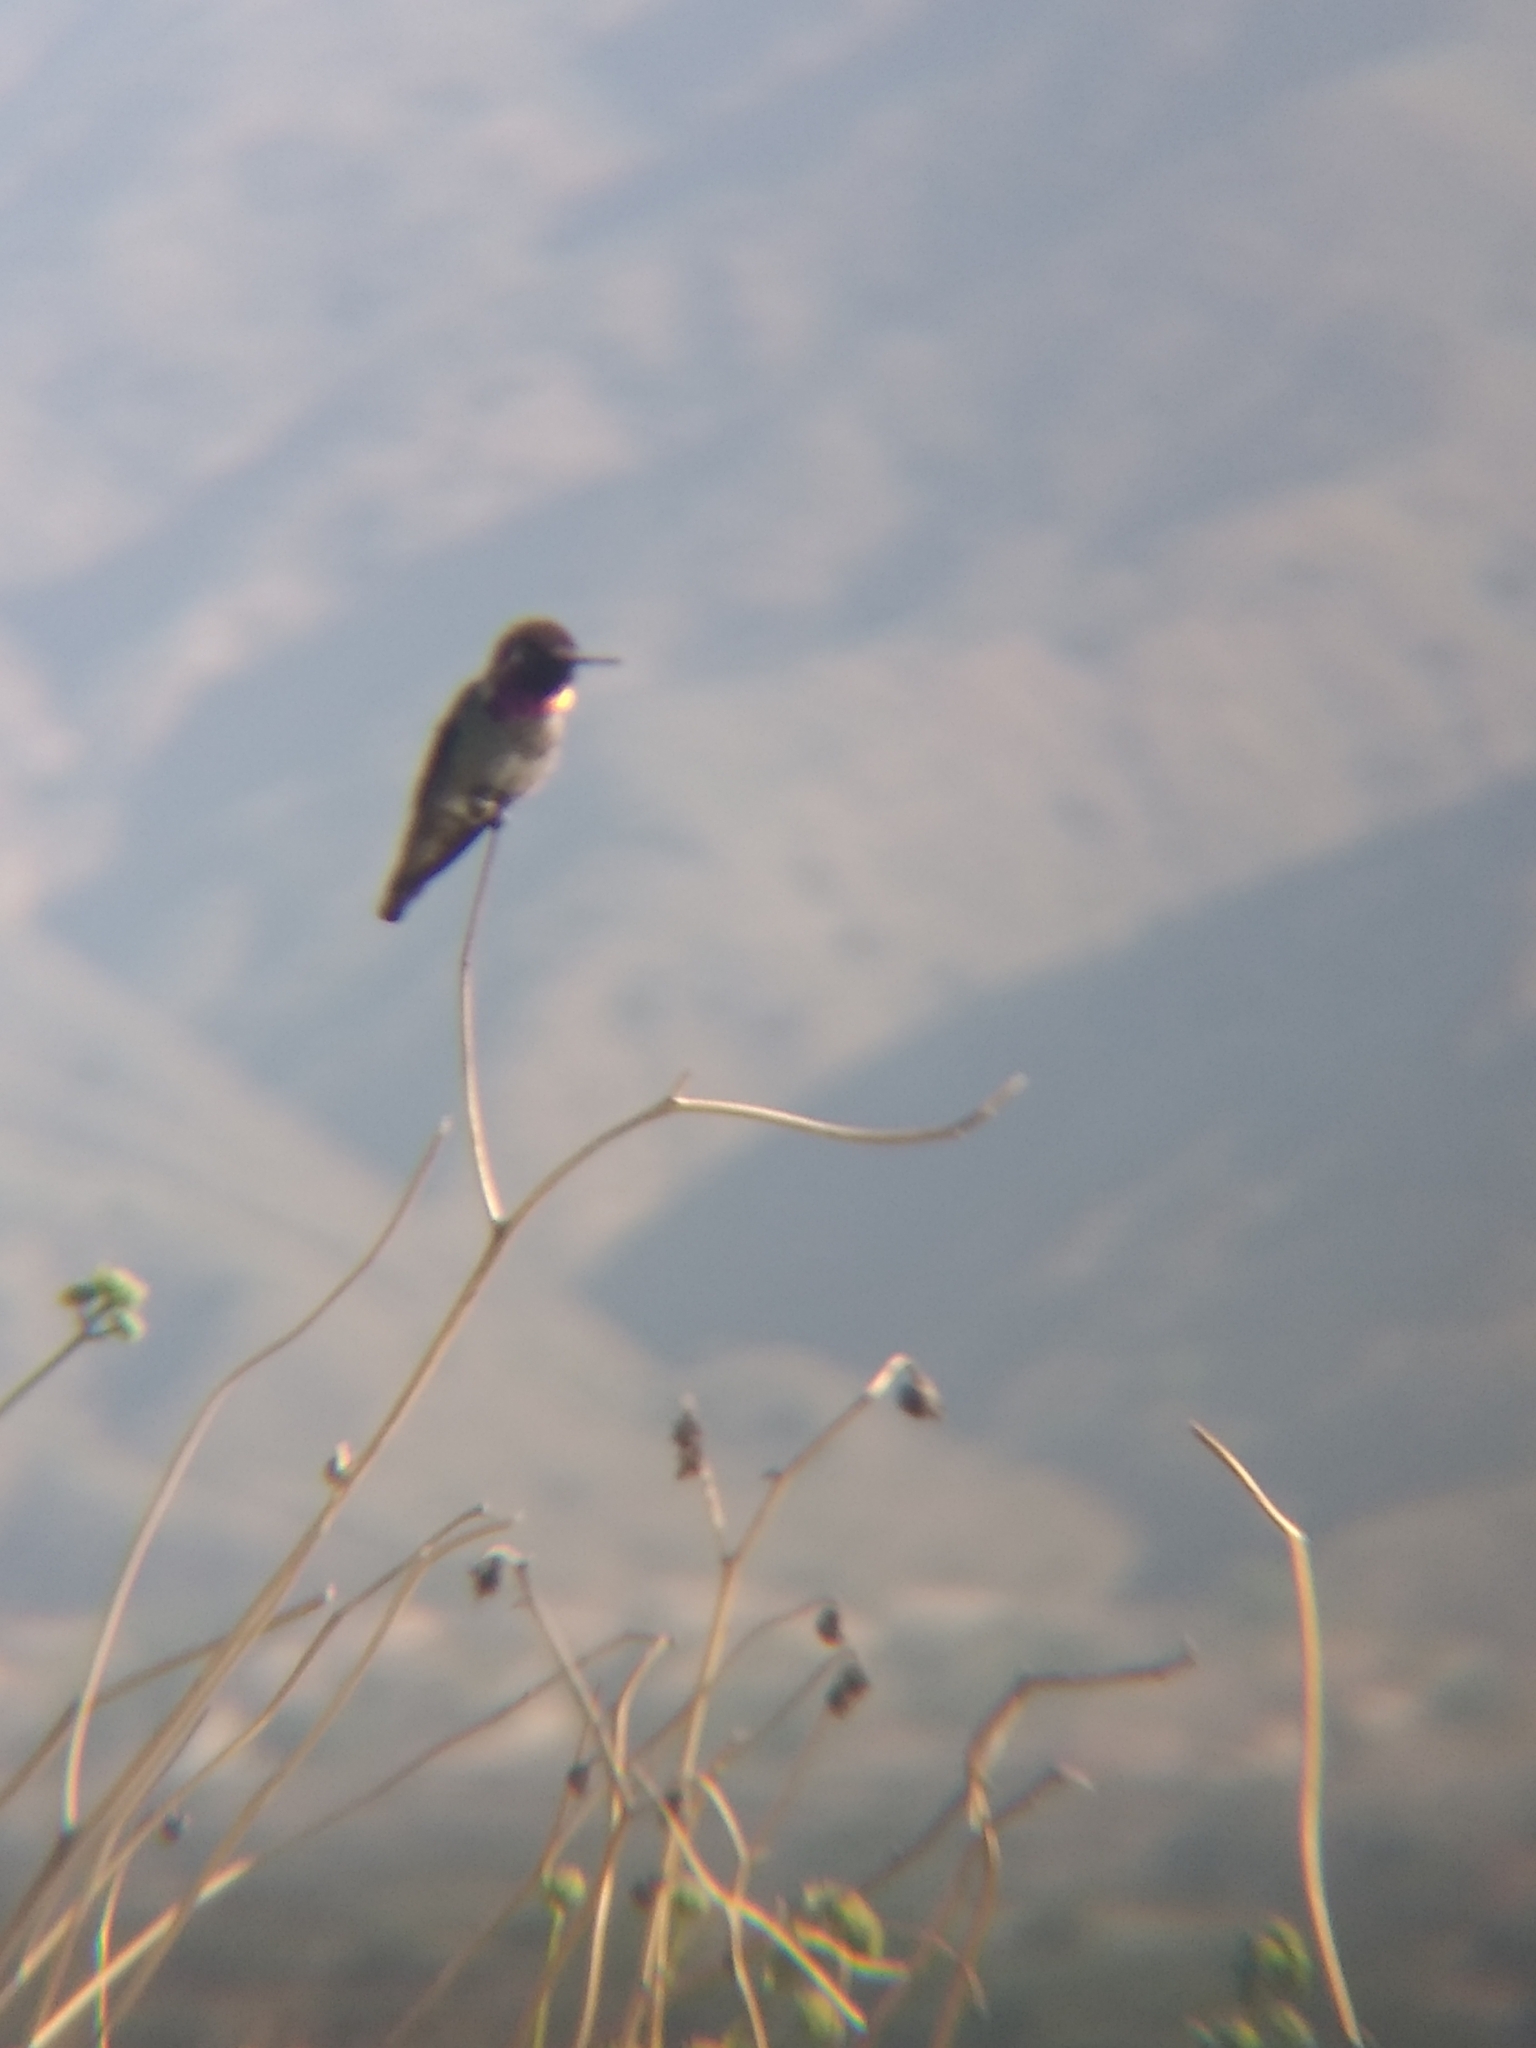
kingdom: Animalia
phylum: Chordata
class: Aves
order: Apodiformes
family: Trochilidae
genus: Calypte
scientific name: Calypte anna
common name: Anna's hummingbird
